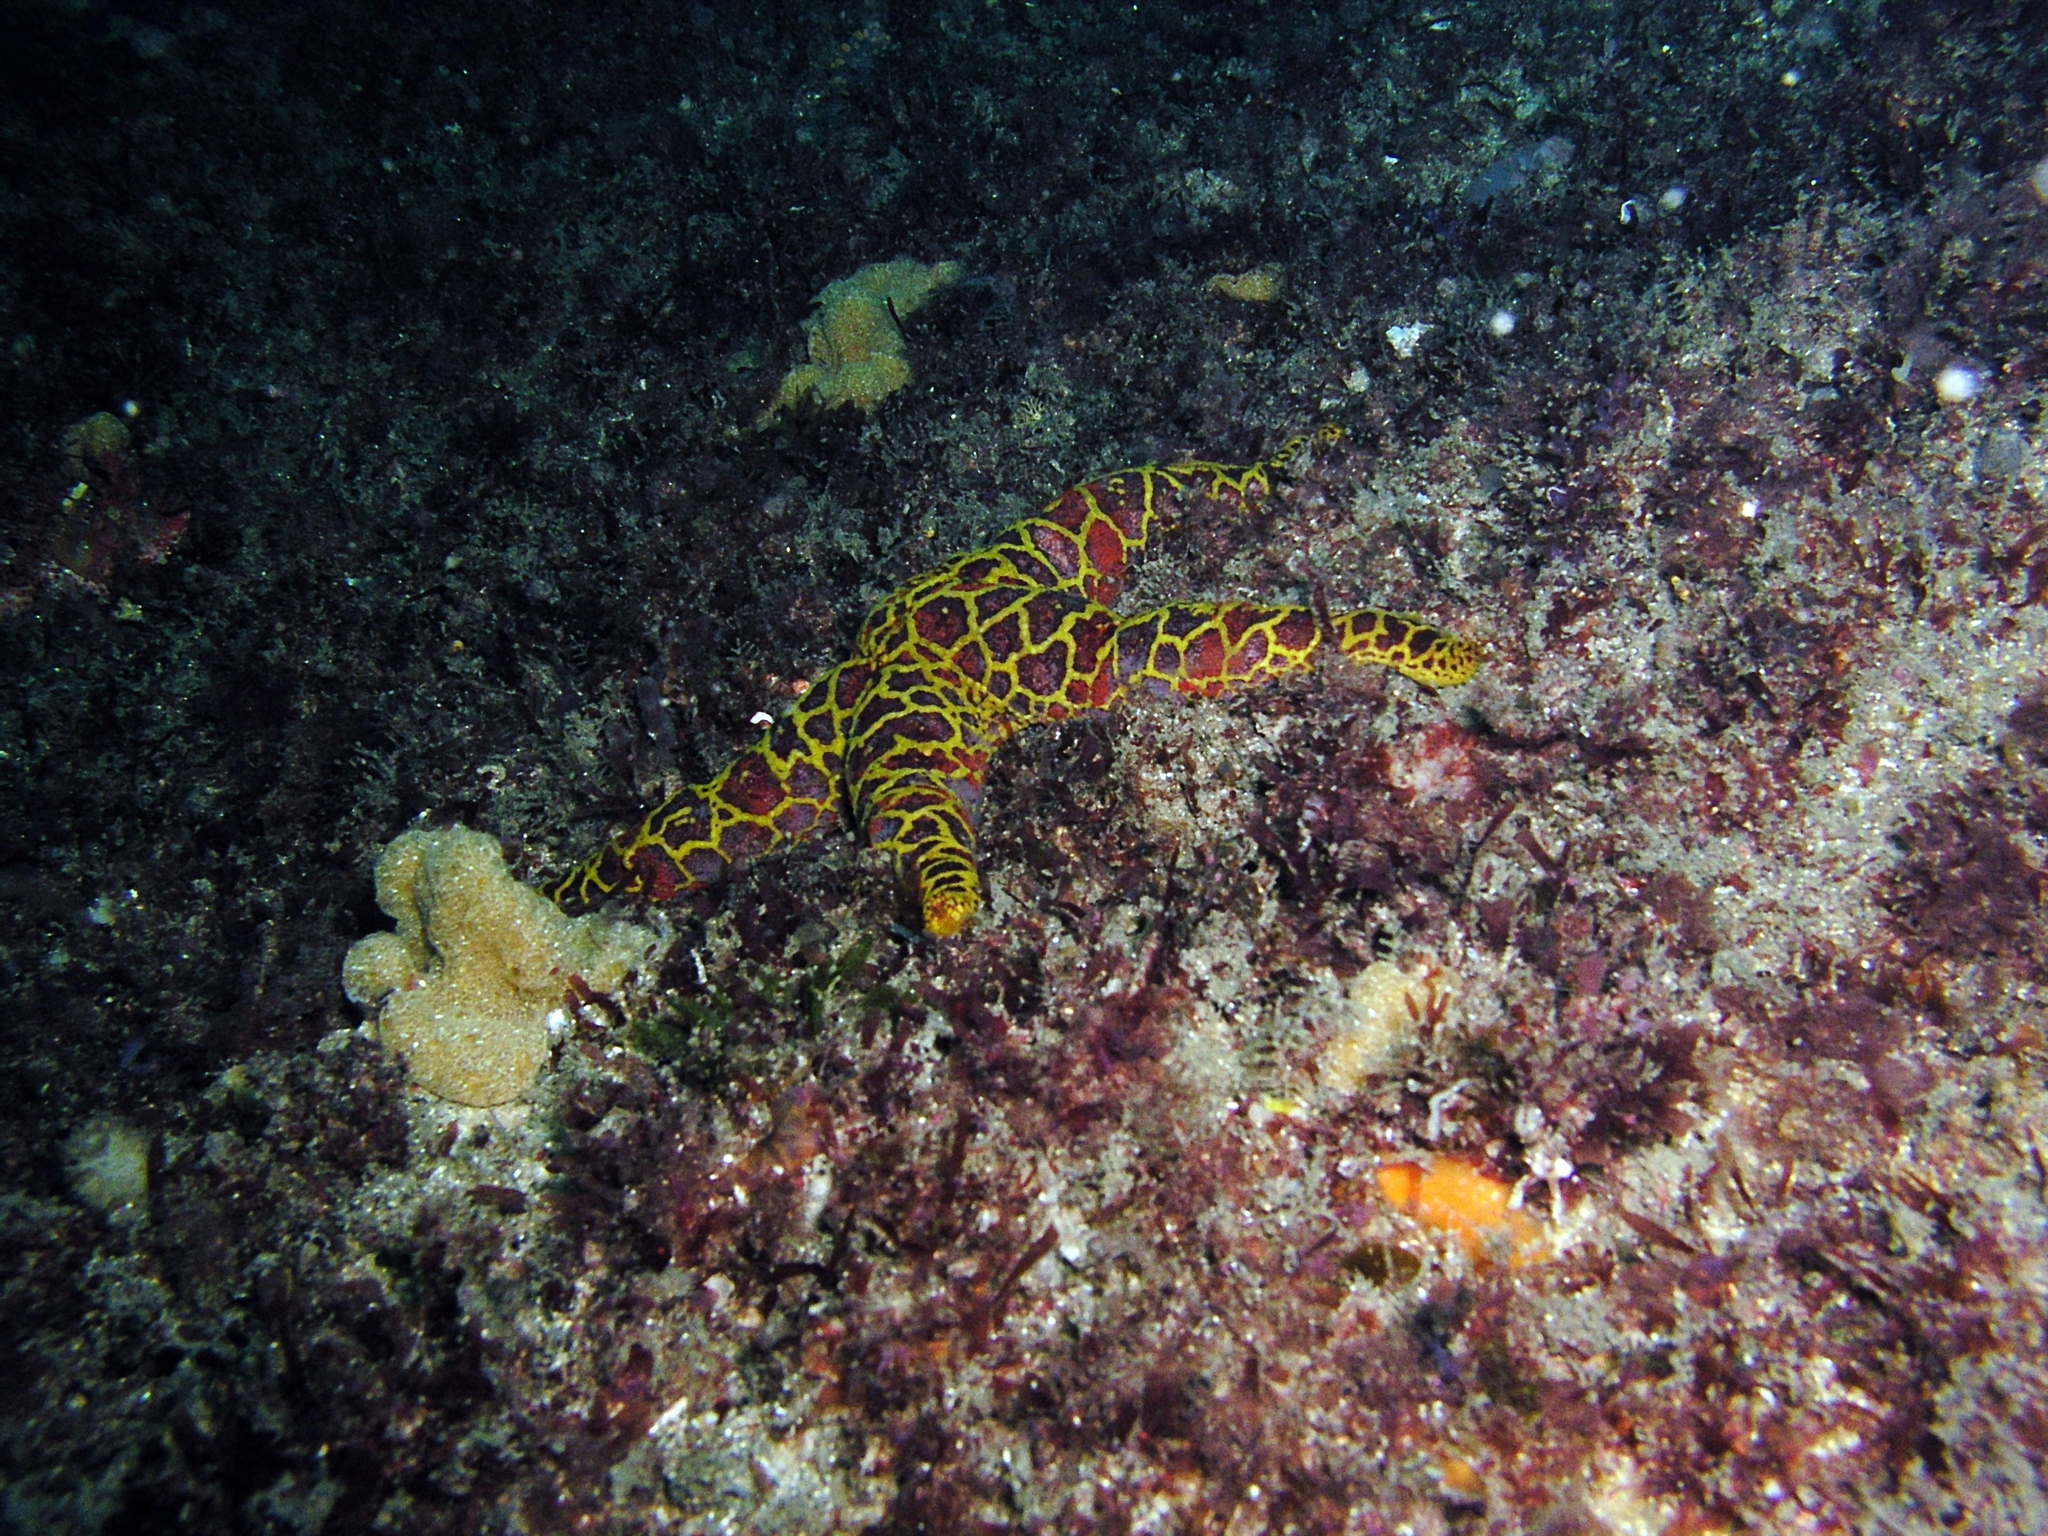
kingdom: Animalia
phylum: Echinodermata
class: Asteroidea
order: Spinulosida
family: Echinasteridae
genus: Plectaster
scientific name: Plectaster decanus
